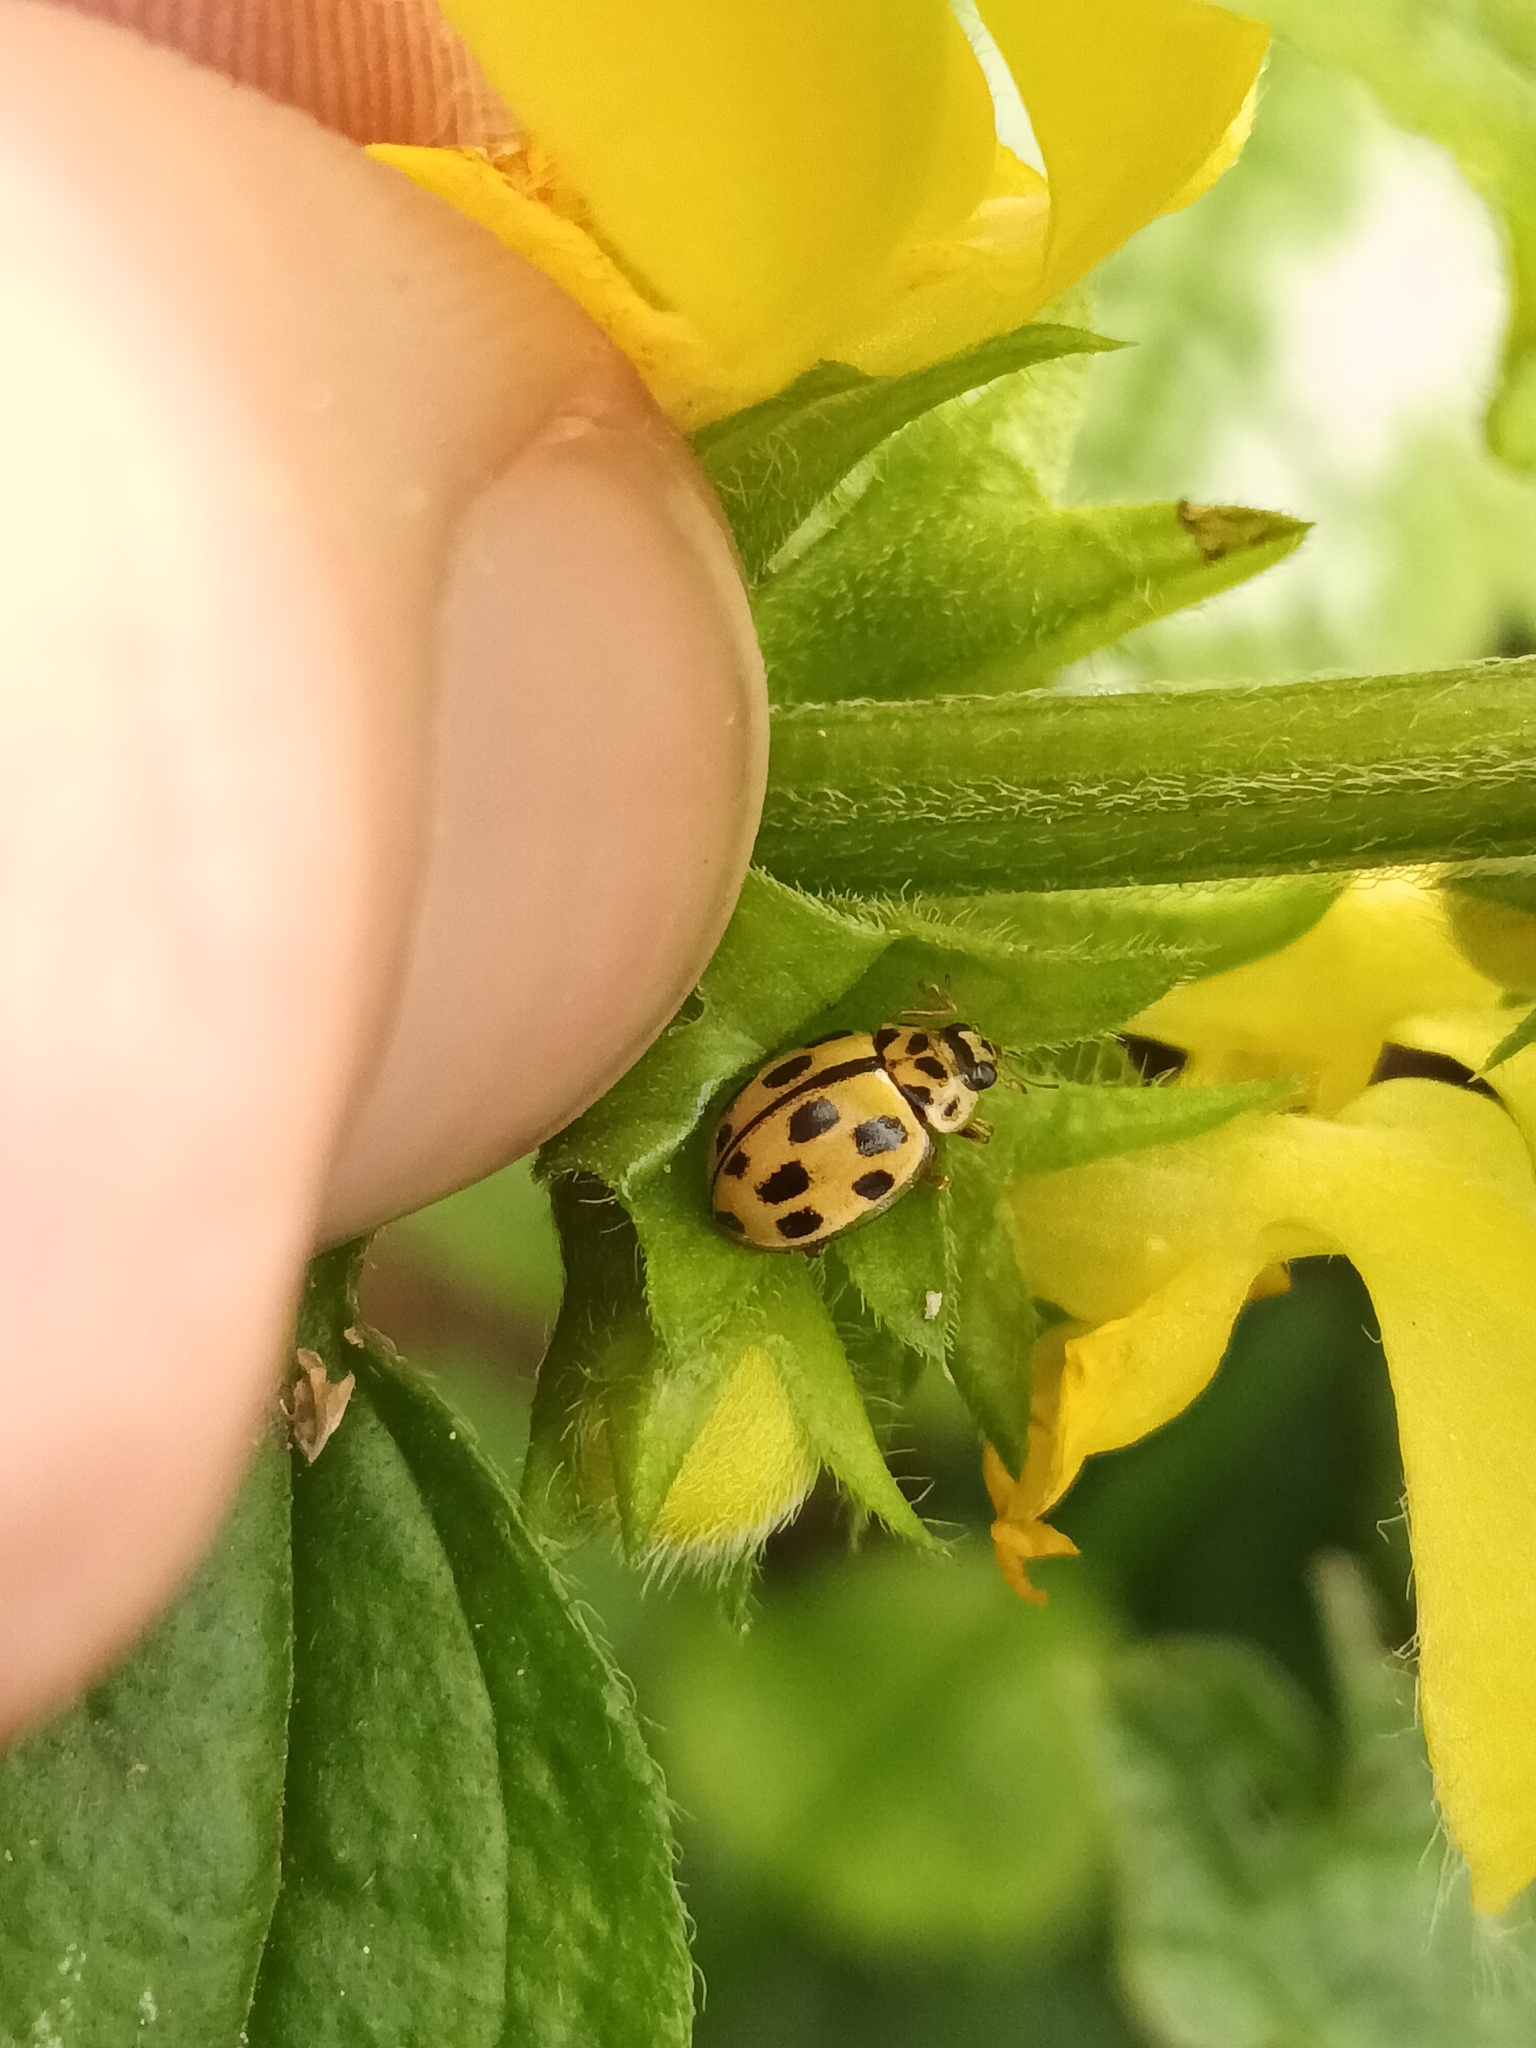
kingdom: Animalia
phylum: Arthropoda
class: Insecta
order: Coleoptera
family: Coccinellidae
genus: Propylaea
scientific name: Propylaea quatuordecimpunctata
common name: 14-spotted ladybird beetle
